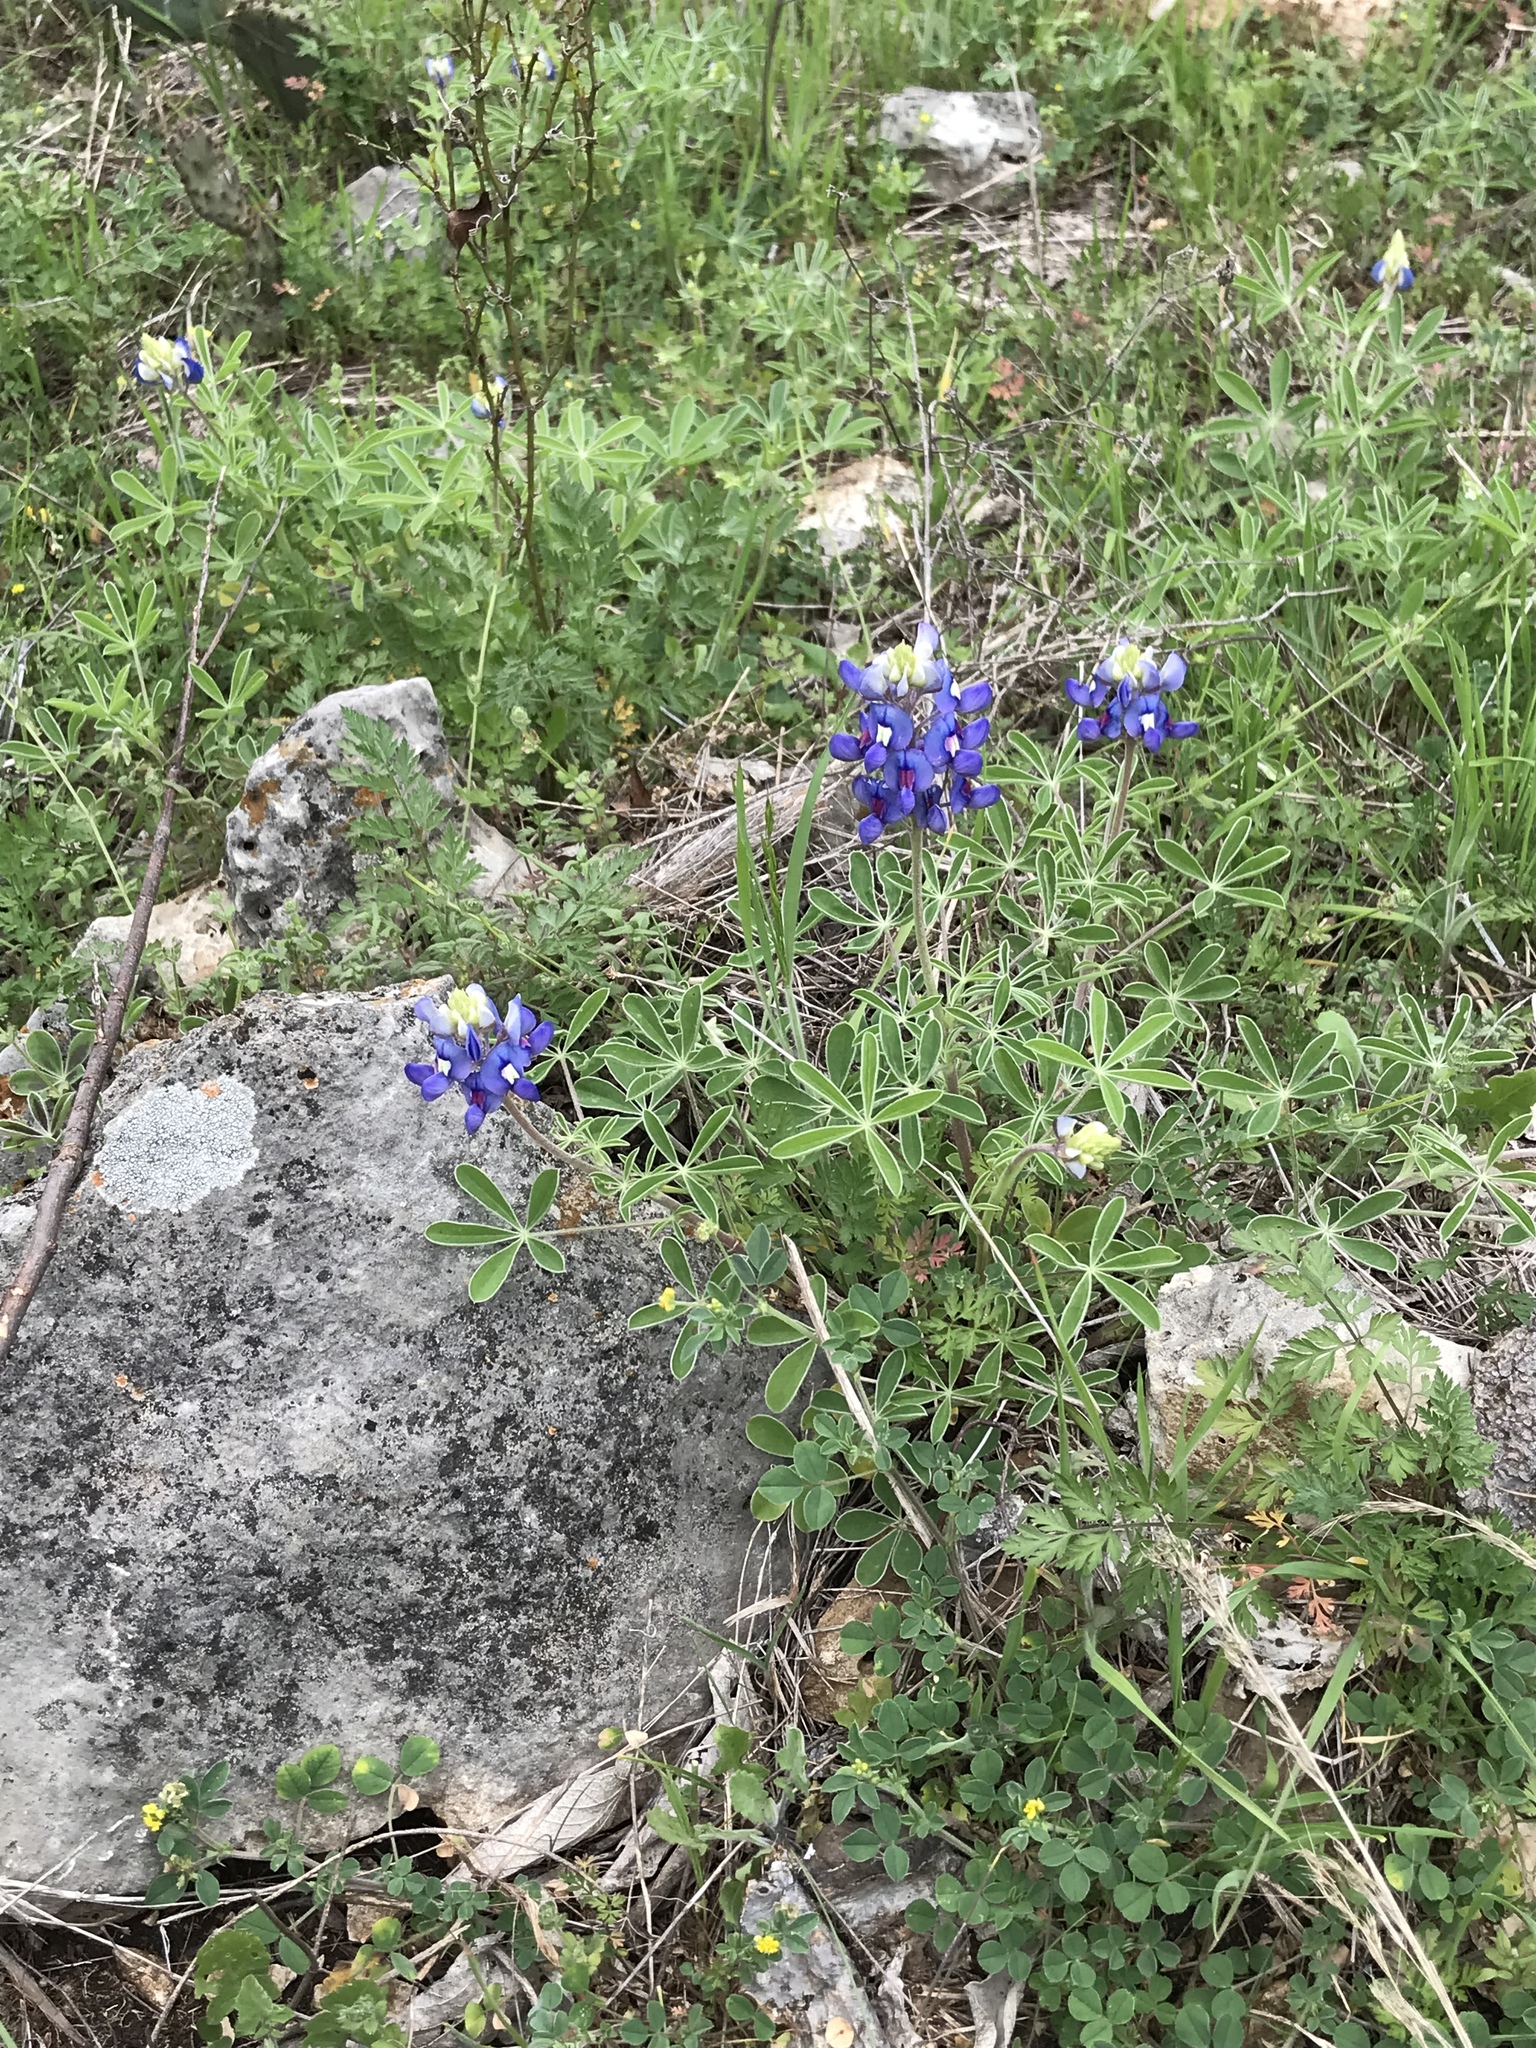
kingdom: Plantae
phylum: Tracheophyta
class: Magnoliopsida
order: Fabales
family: Fabaceae
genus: Lupinus
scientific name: Lupinus texensis
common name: Texas bluebonnet
